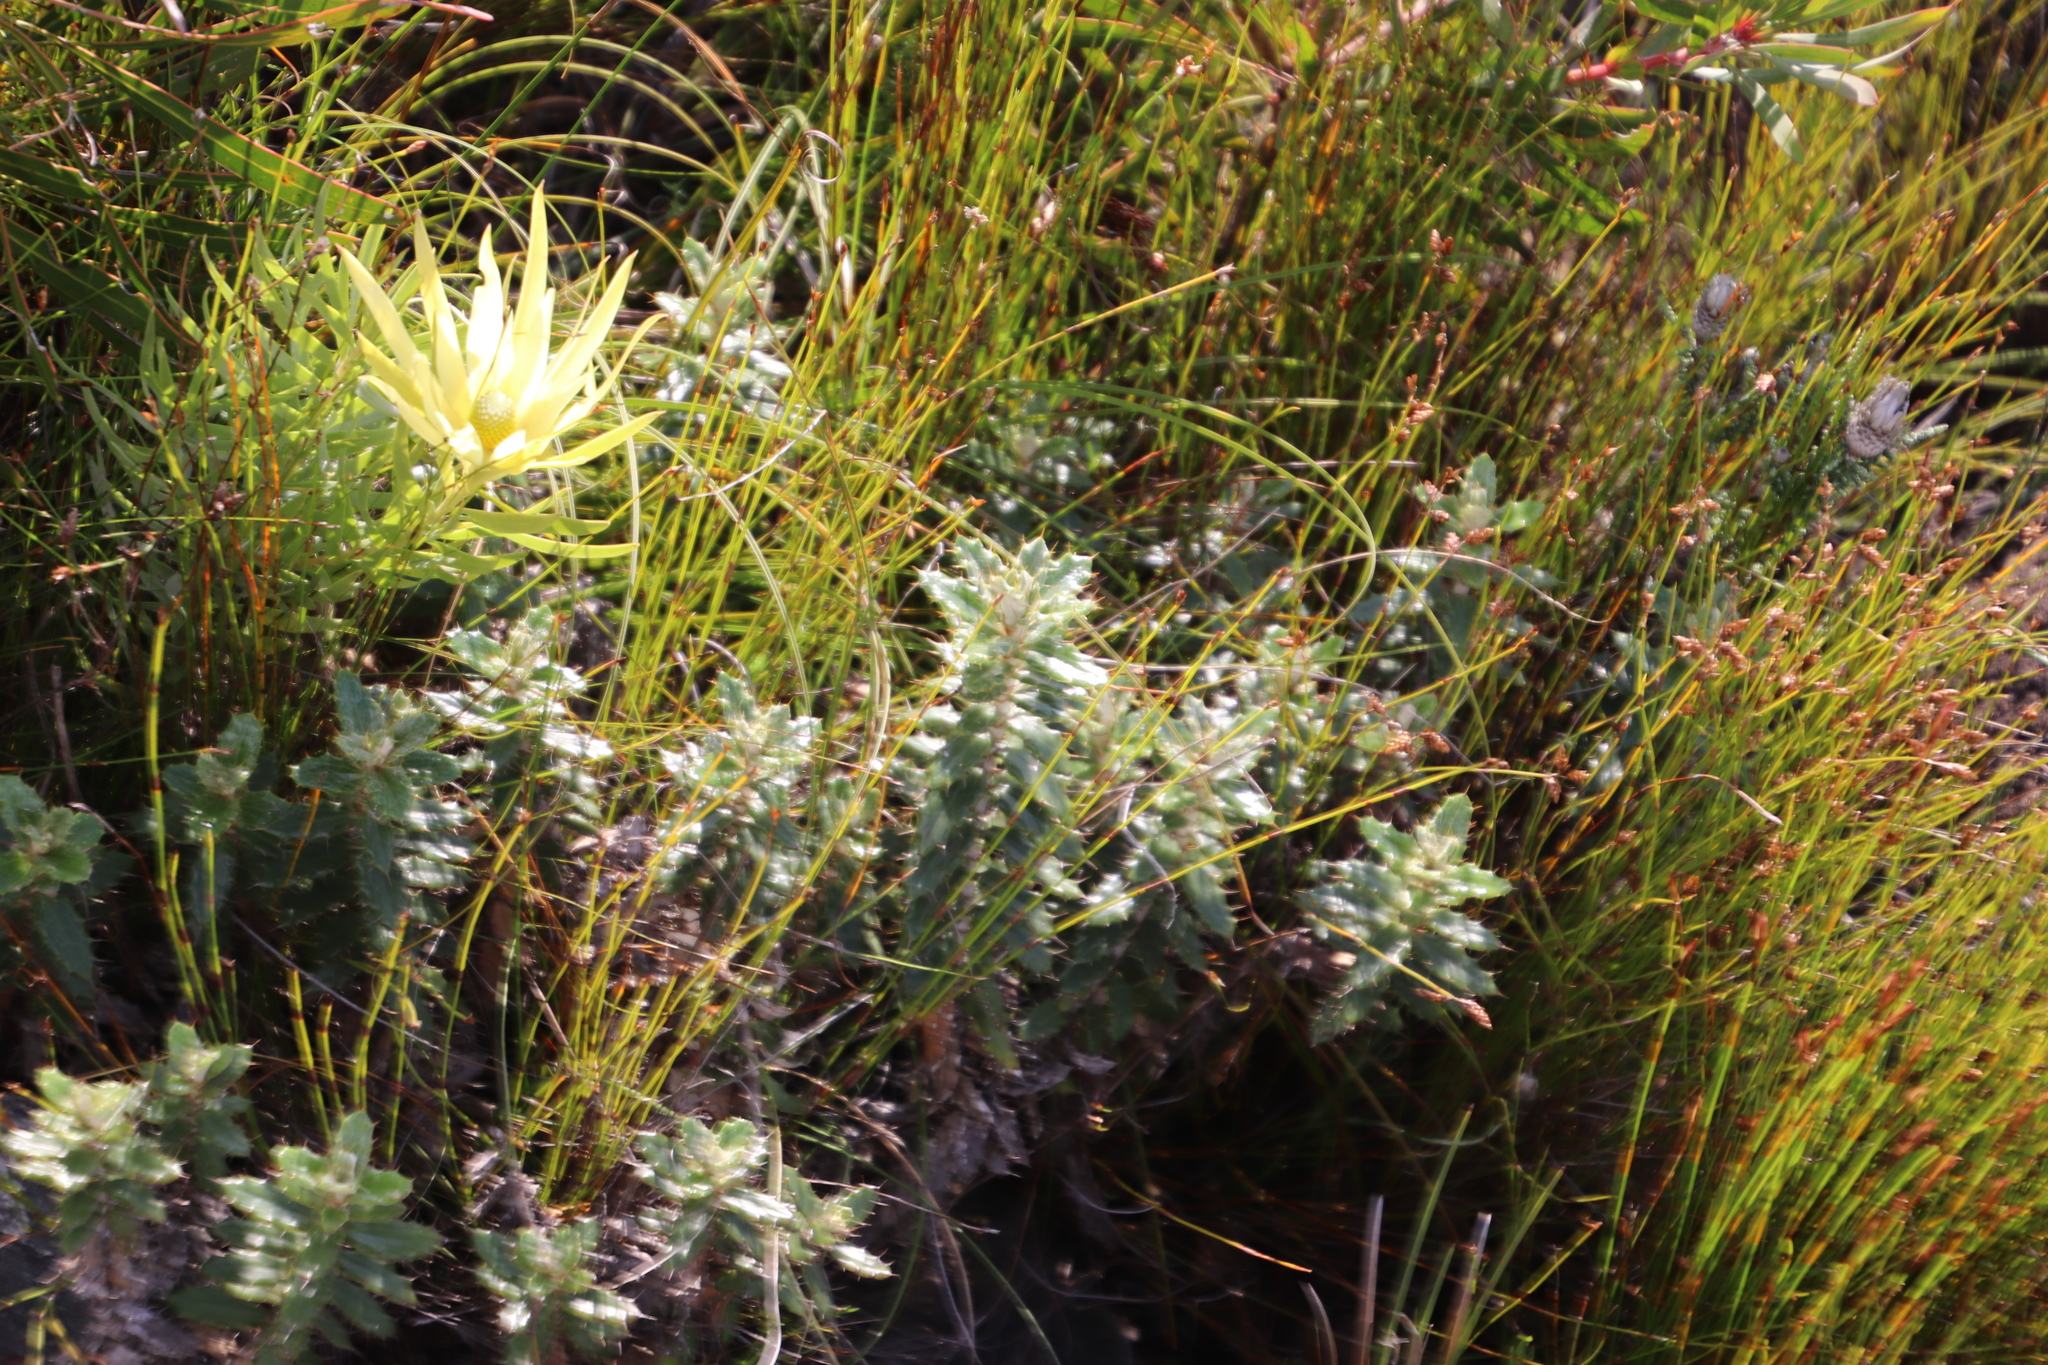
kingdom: Plantae
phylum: Tracheophyta
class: Magnoliopsida
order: Asterales
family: Asteraceae
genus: Berkheya
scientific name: Berkheya barbata
